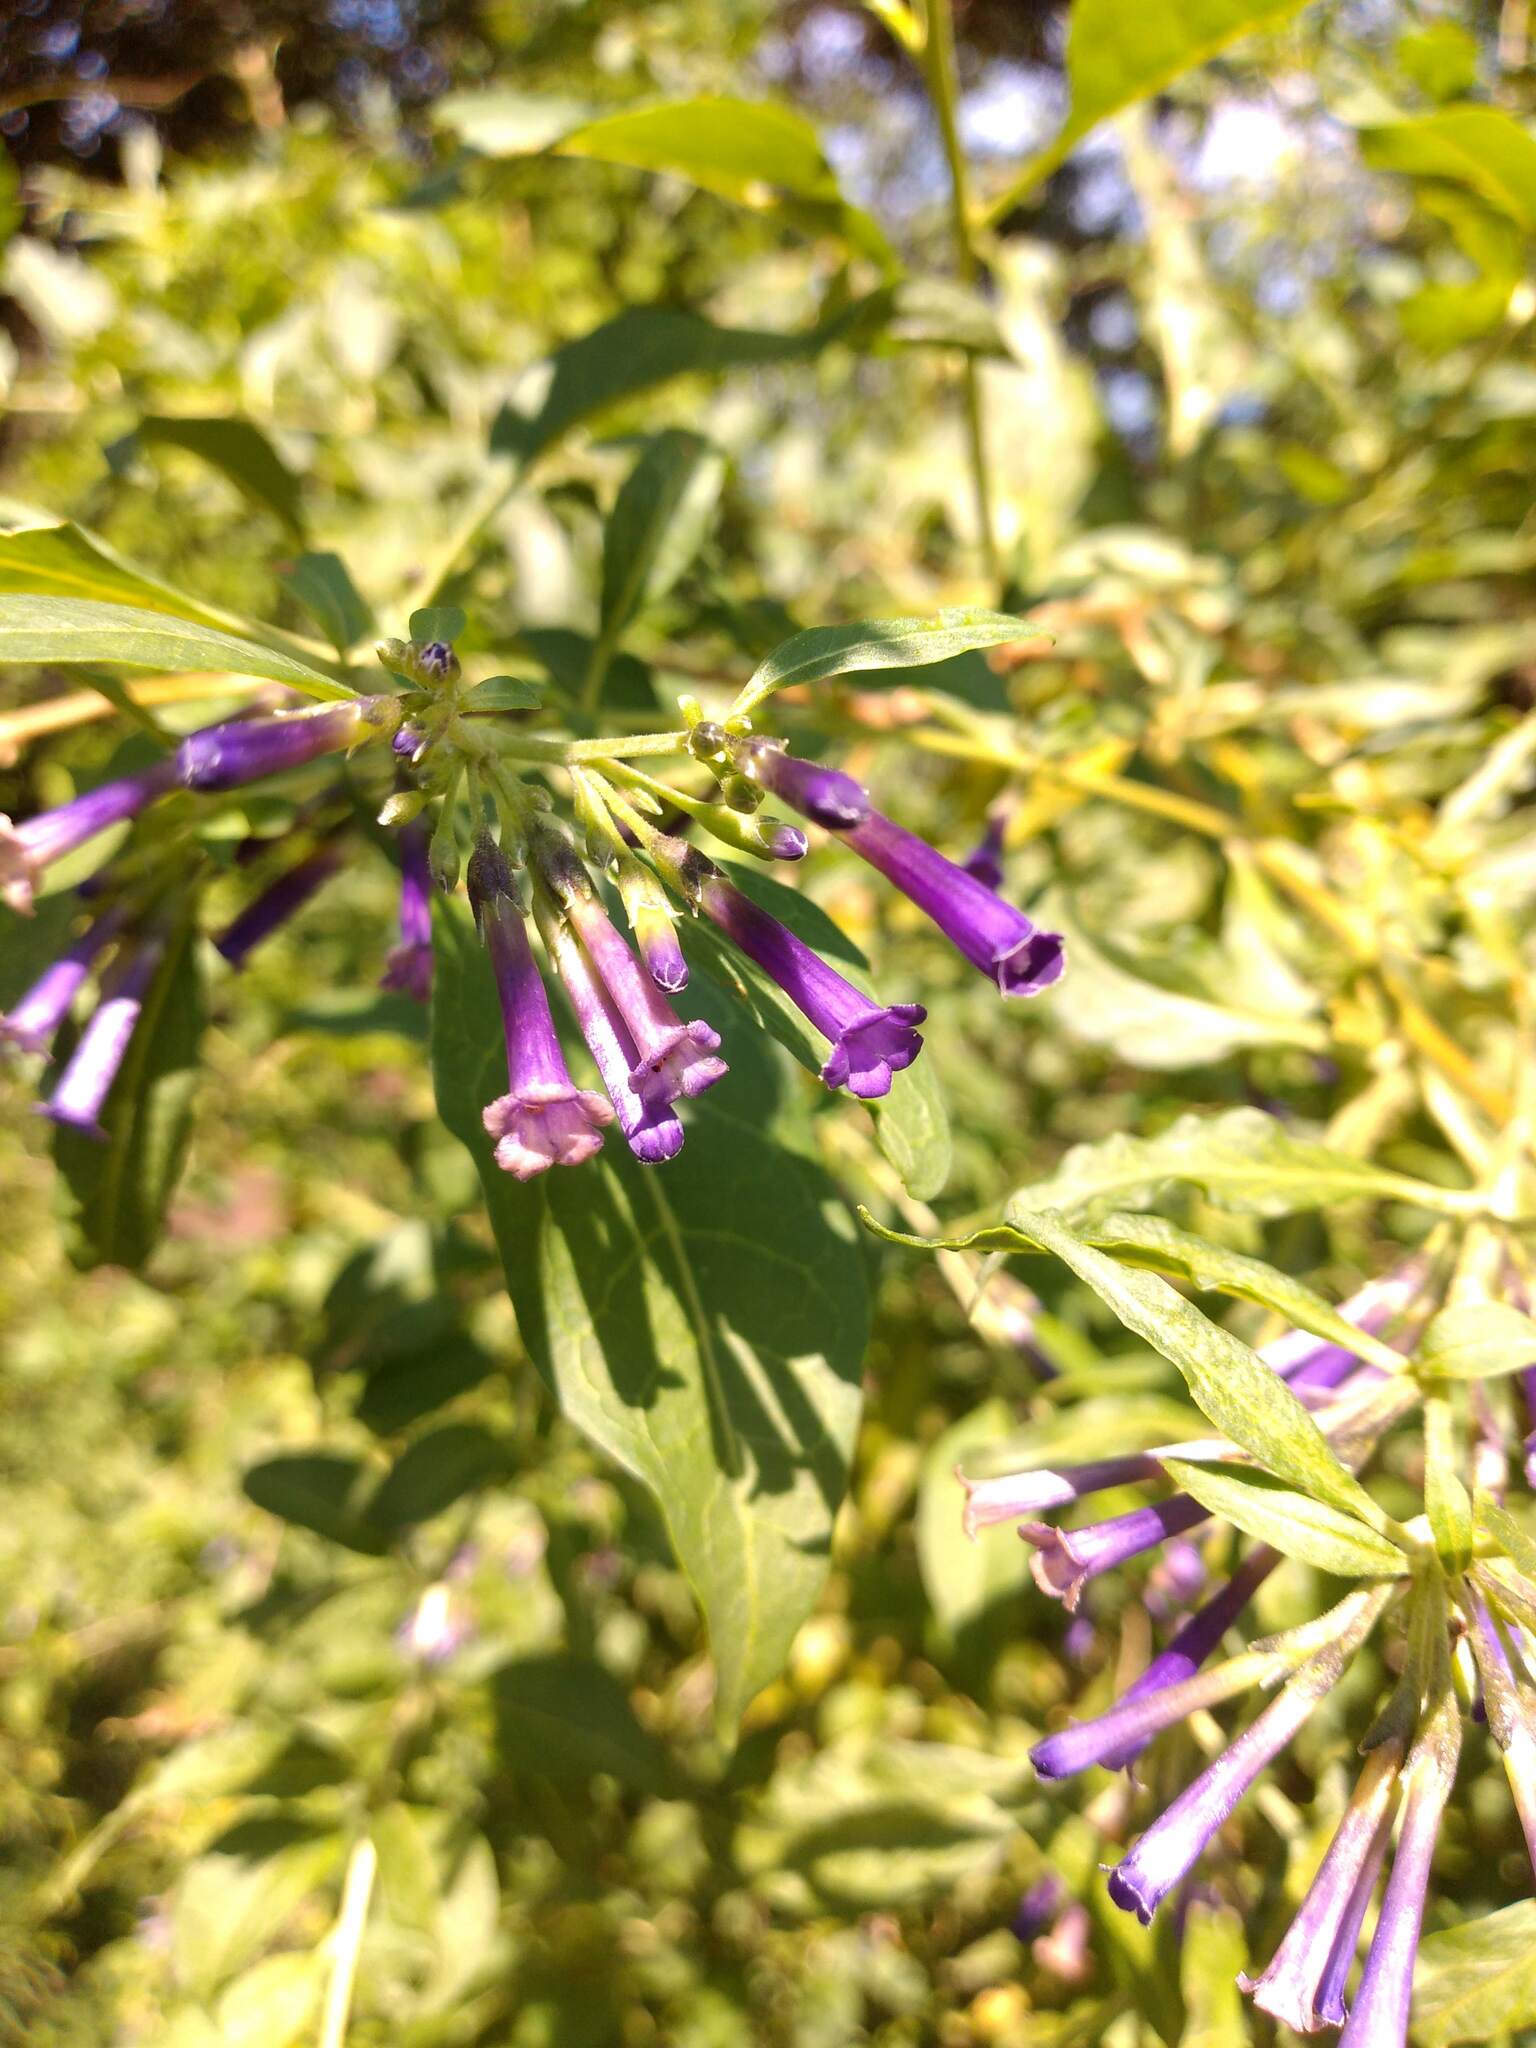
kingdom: Plantae
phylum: Tracheophyta
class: Magnoliopsida
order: Solanales
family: Solanaceae
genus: Lycium
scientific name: Lycium cestroides
